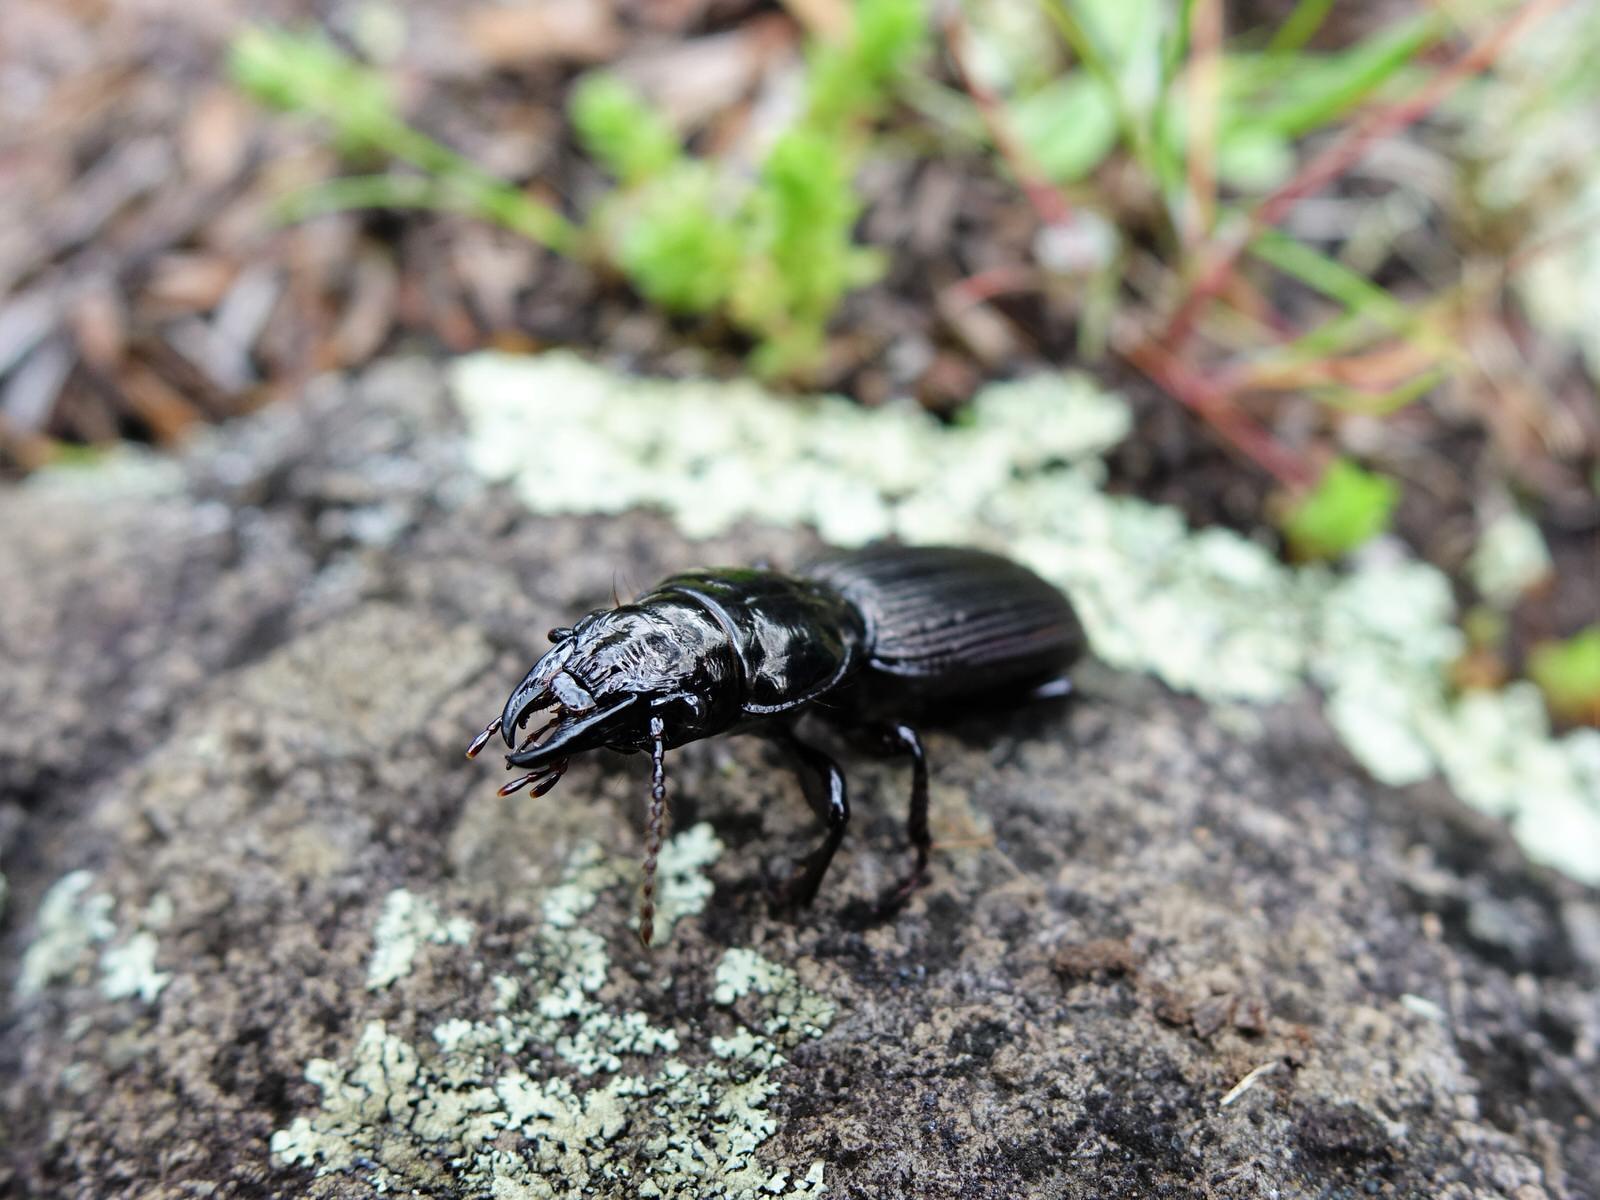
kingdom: Animalia
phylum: Arthropoda
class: Insecta
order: Coleoptera
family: Carabidae
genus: Mecodema
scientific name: Mecodema spiniferum
